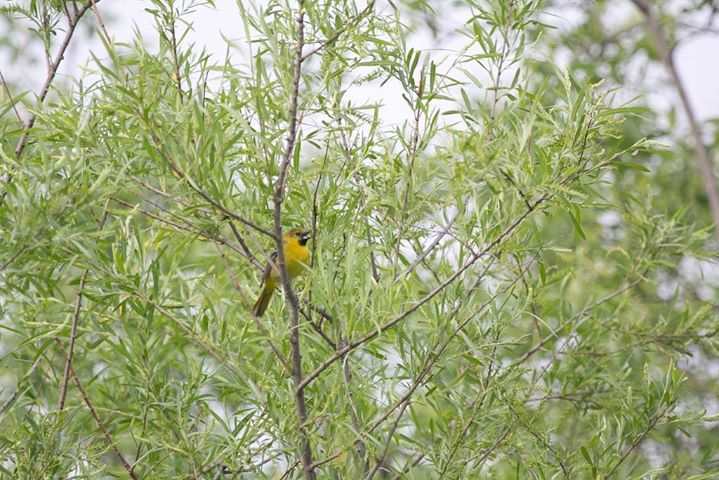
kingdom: Animalia
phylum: Chordata
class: Aves
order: Passeriformes
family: Icteridae
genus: Icterus
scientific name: Icterus spurius
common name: Orchard oriole
